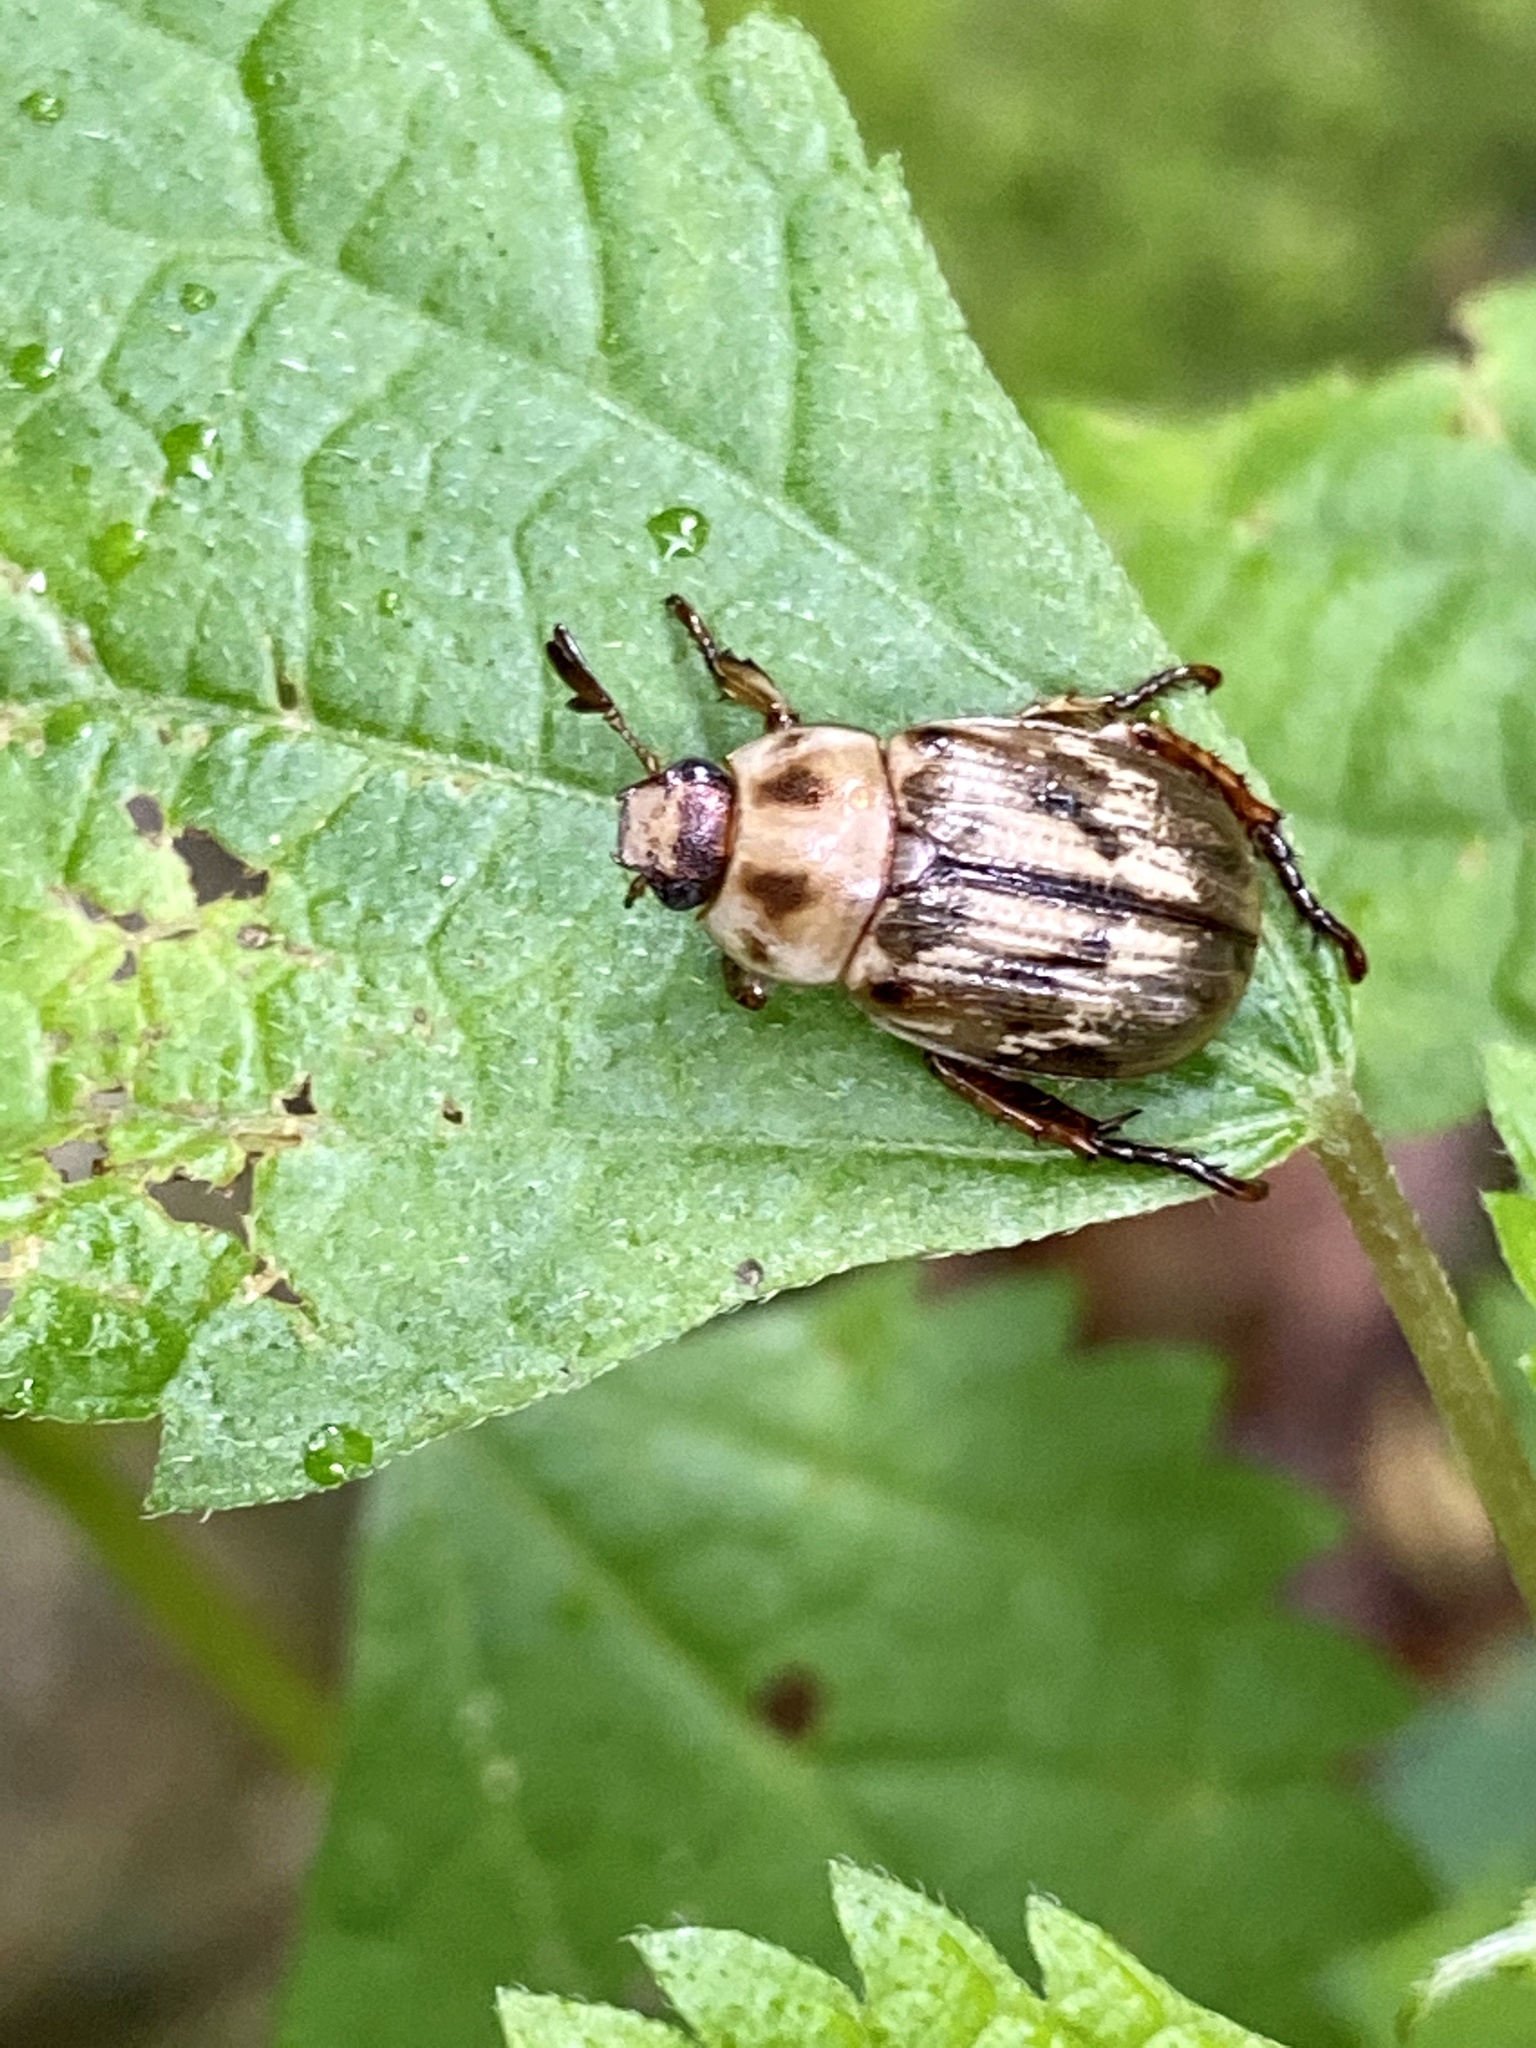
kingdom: Animalia
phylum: Arthropoda
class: Insecta
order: Coleoptera
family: Scarabaeidae
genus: Exomala
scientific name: Exomala orientalis
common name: Oriental beetle
